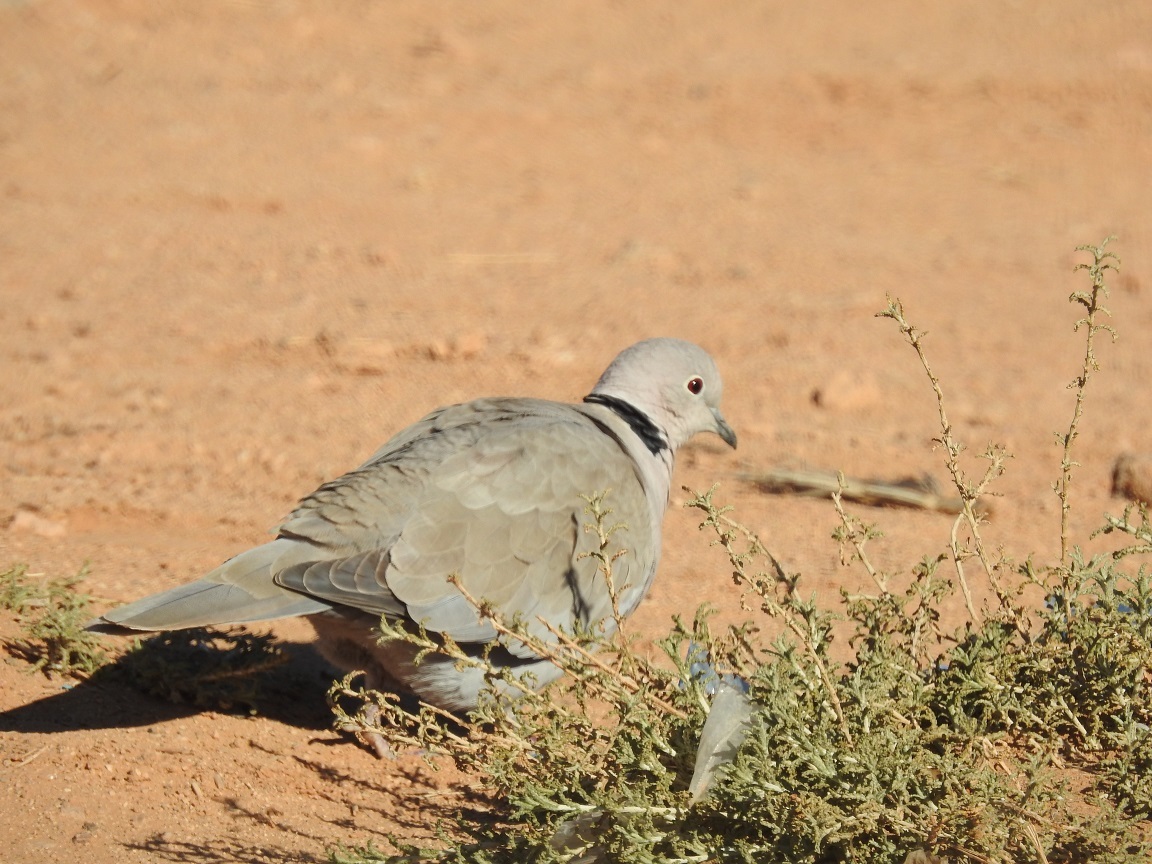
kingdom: Animalia
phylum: Chordata
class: Aves
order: Columbiformes
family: Columbidae
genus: Streptopelia
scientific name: Streptopelia decaocto
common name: Eurasian collared dove
